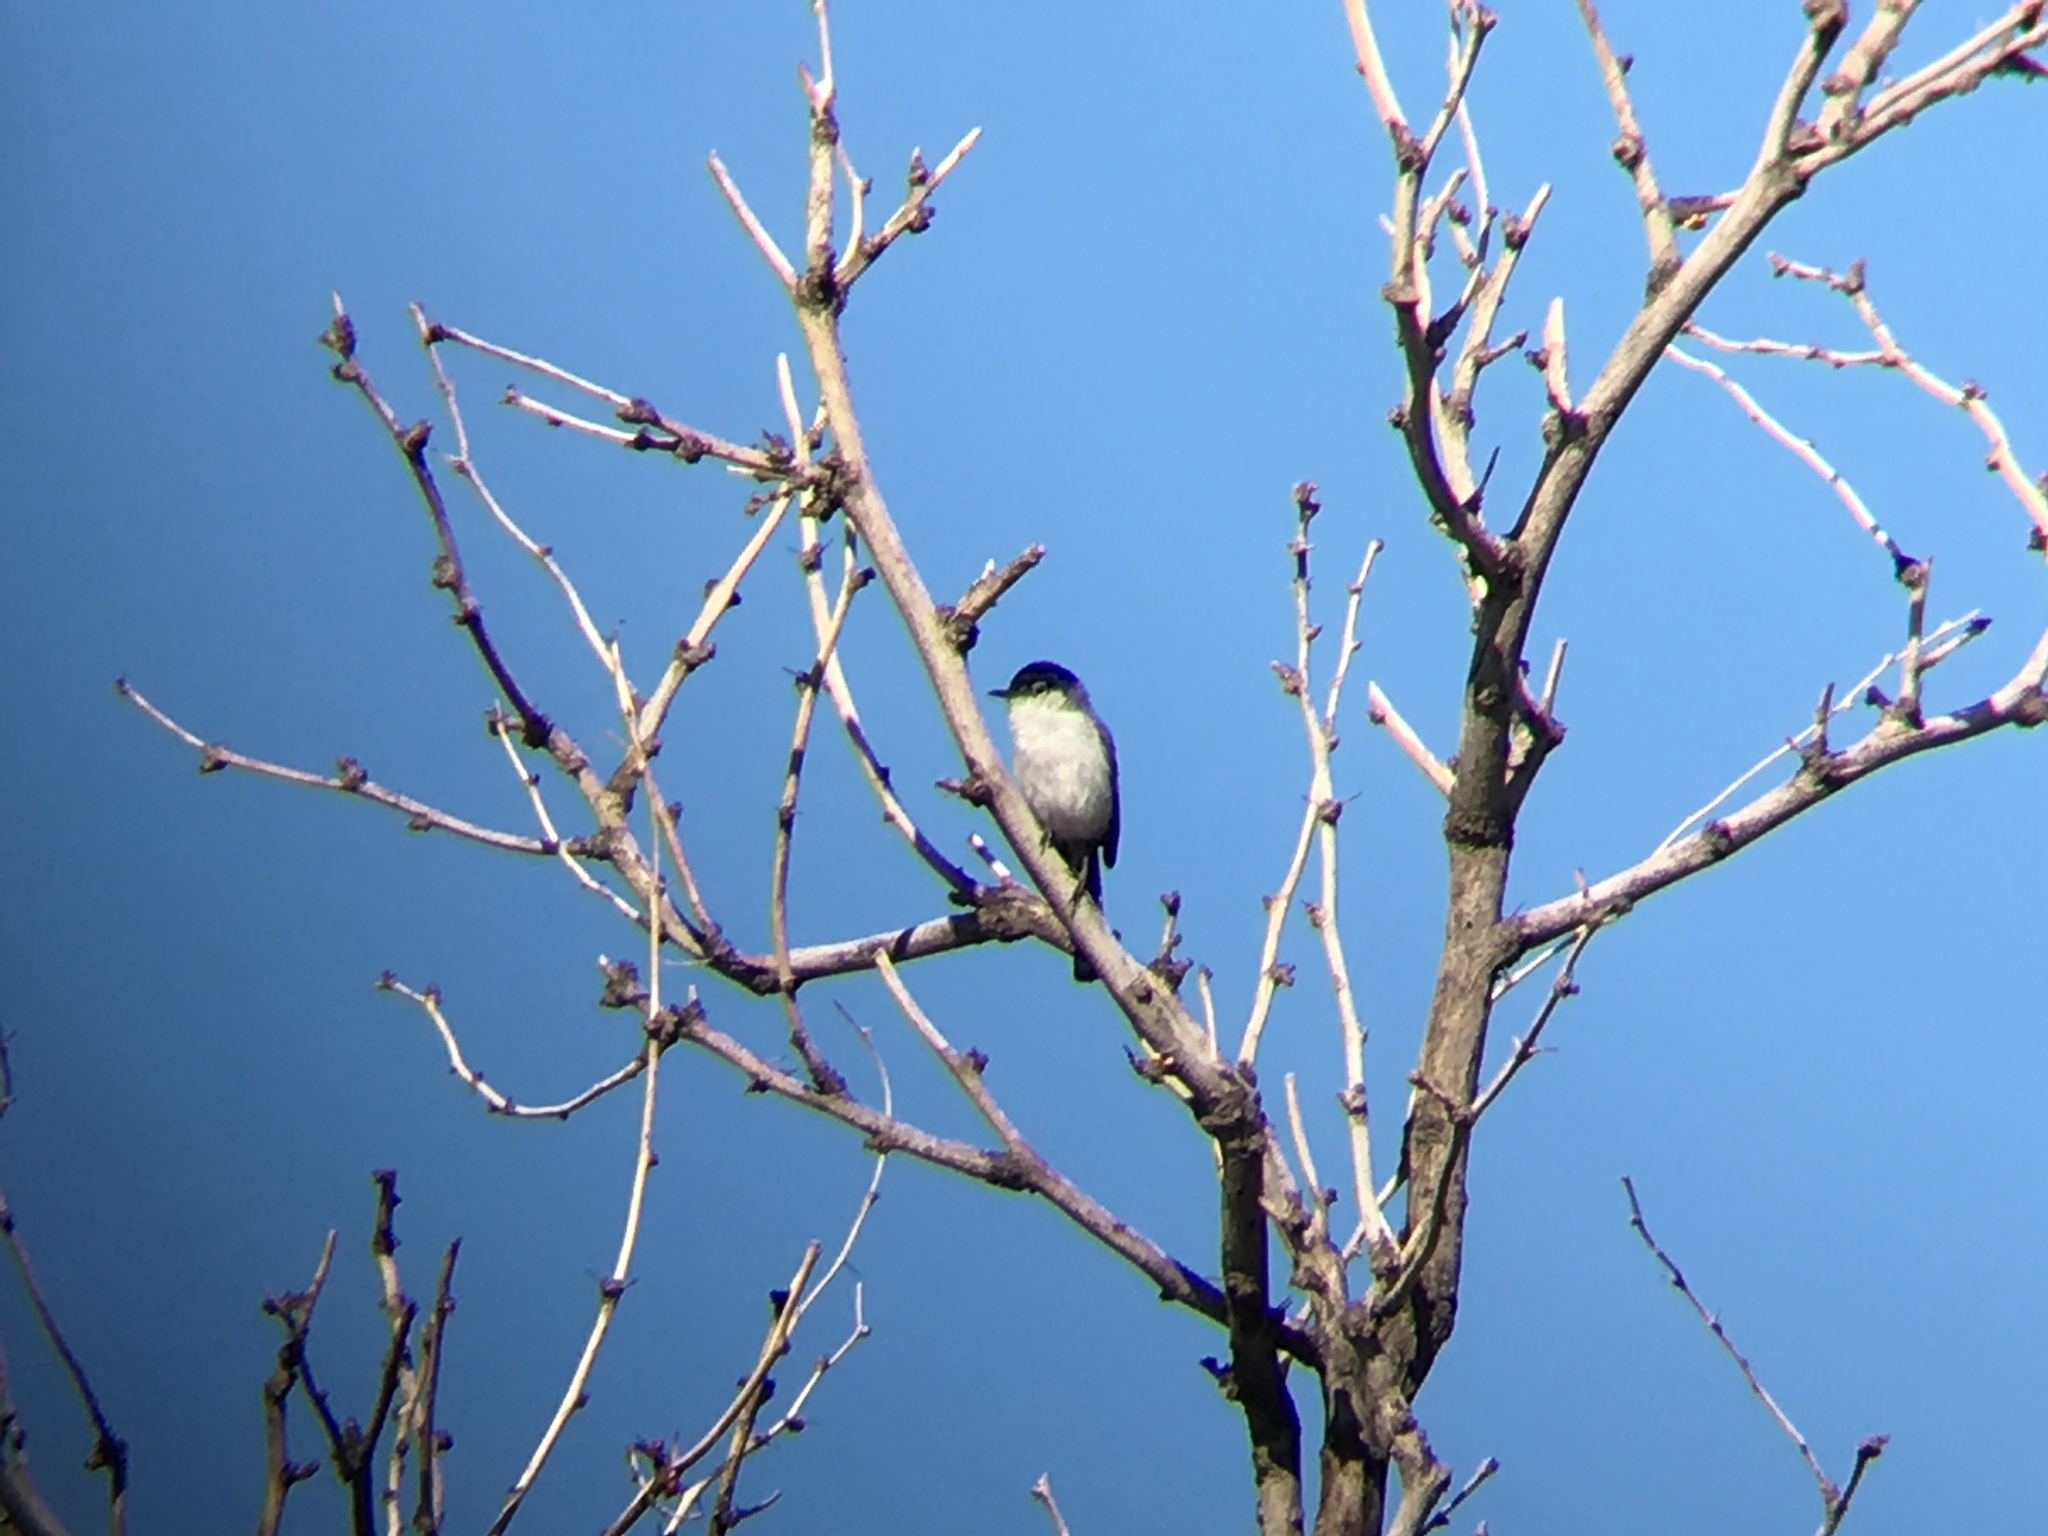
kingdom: Animalia
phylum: Chordata
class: Aves
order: Passeriformes
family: Polioptilidae
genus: Polioptila
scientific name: Polioptila melanura
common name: Black-tailed gnatcatcher
